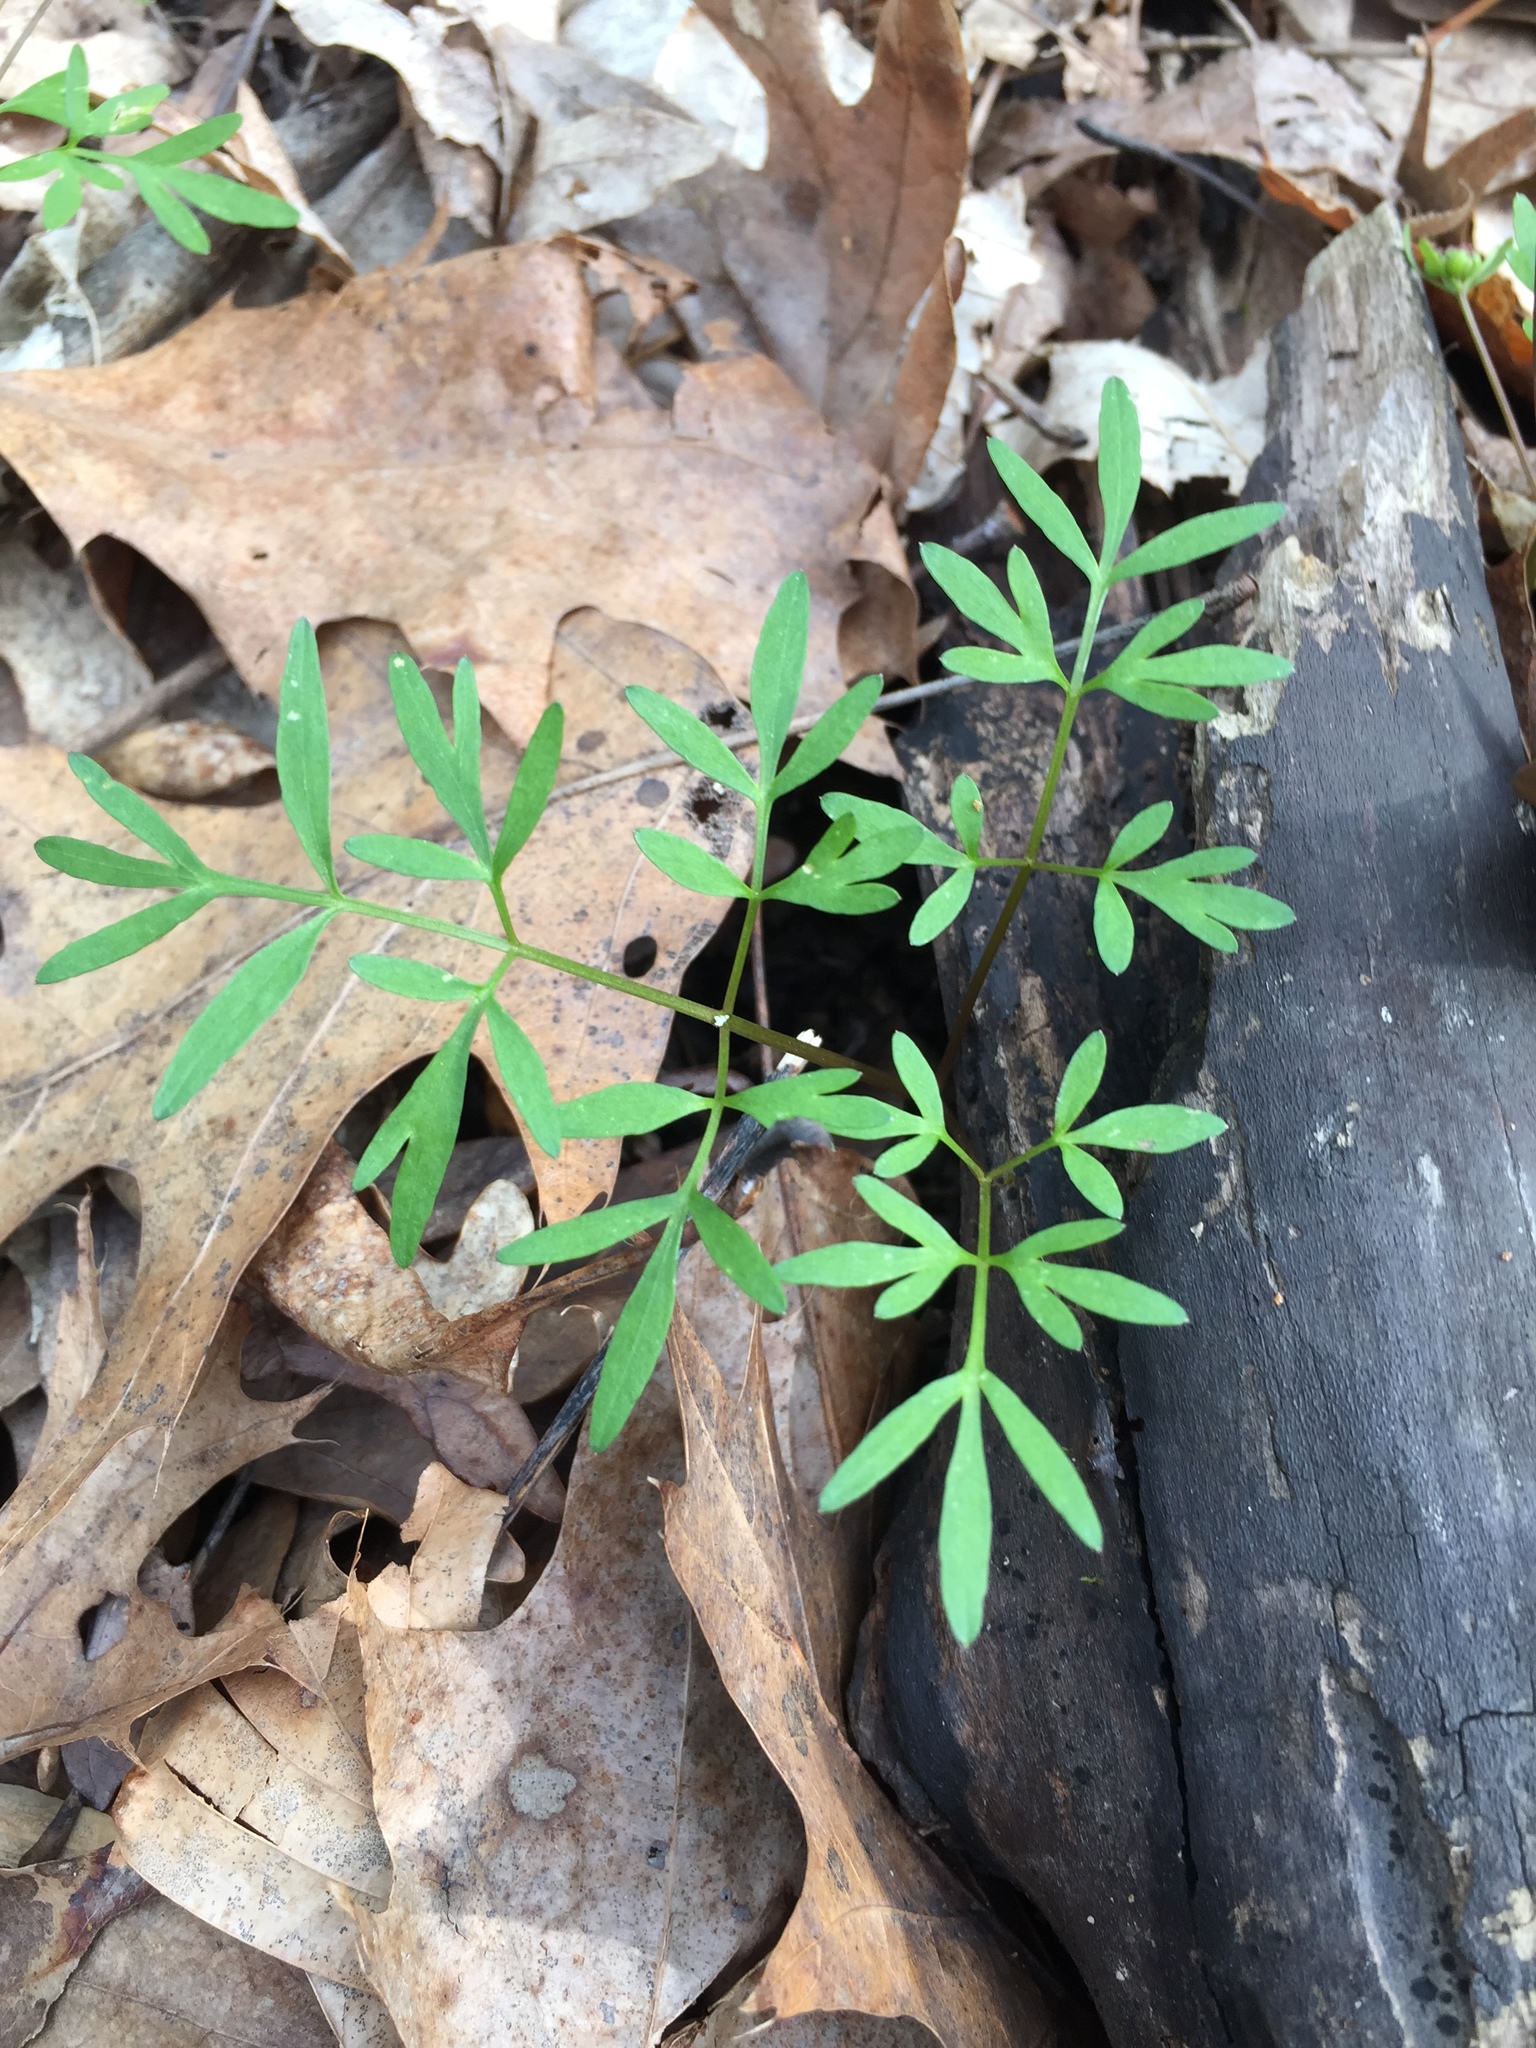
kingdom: Plantae
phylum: Tracheophyta
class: Magnoliopsida
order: Apiales
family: Apiaceae
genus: Erigenia
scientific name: Erigenia bulbosa
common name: Pepper-and-salt
